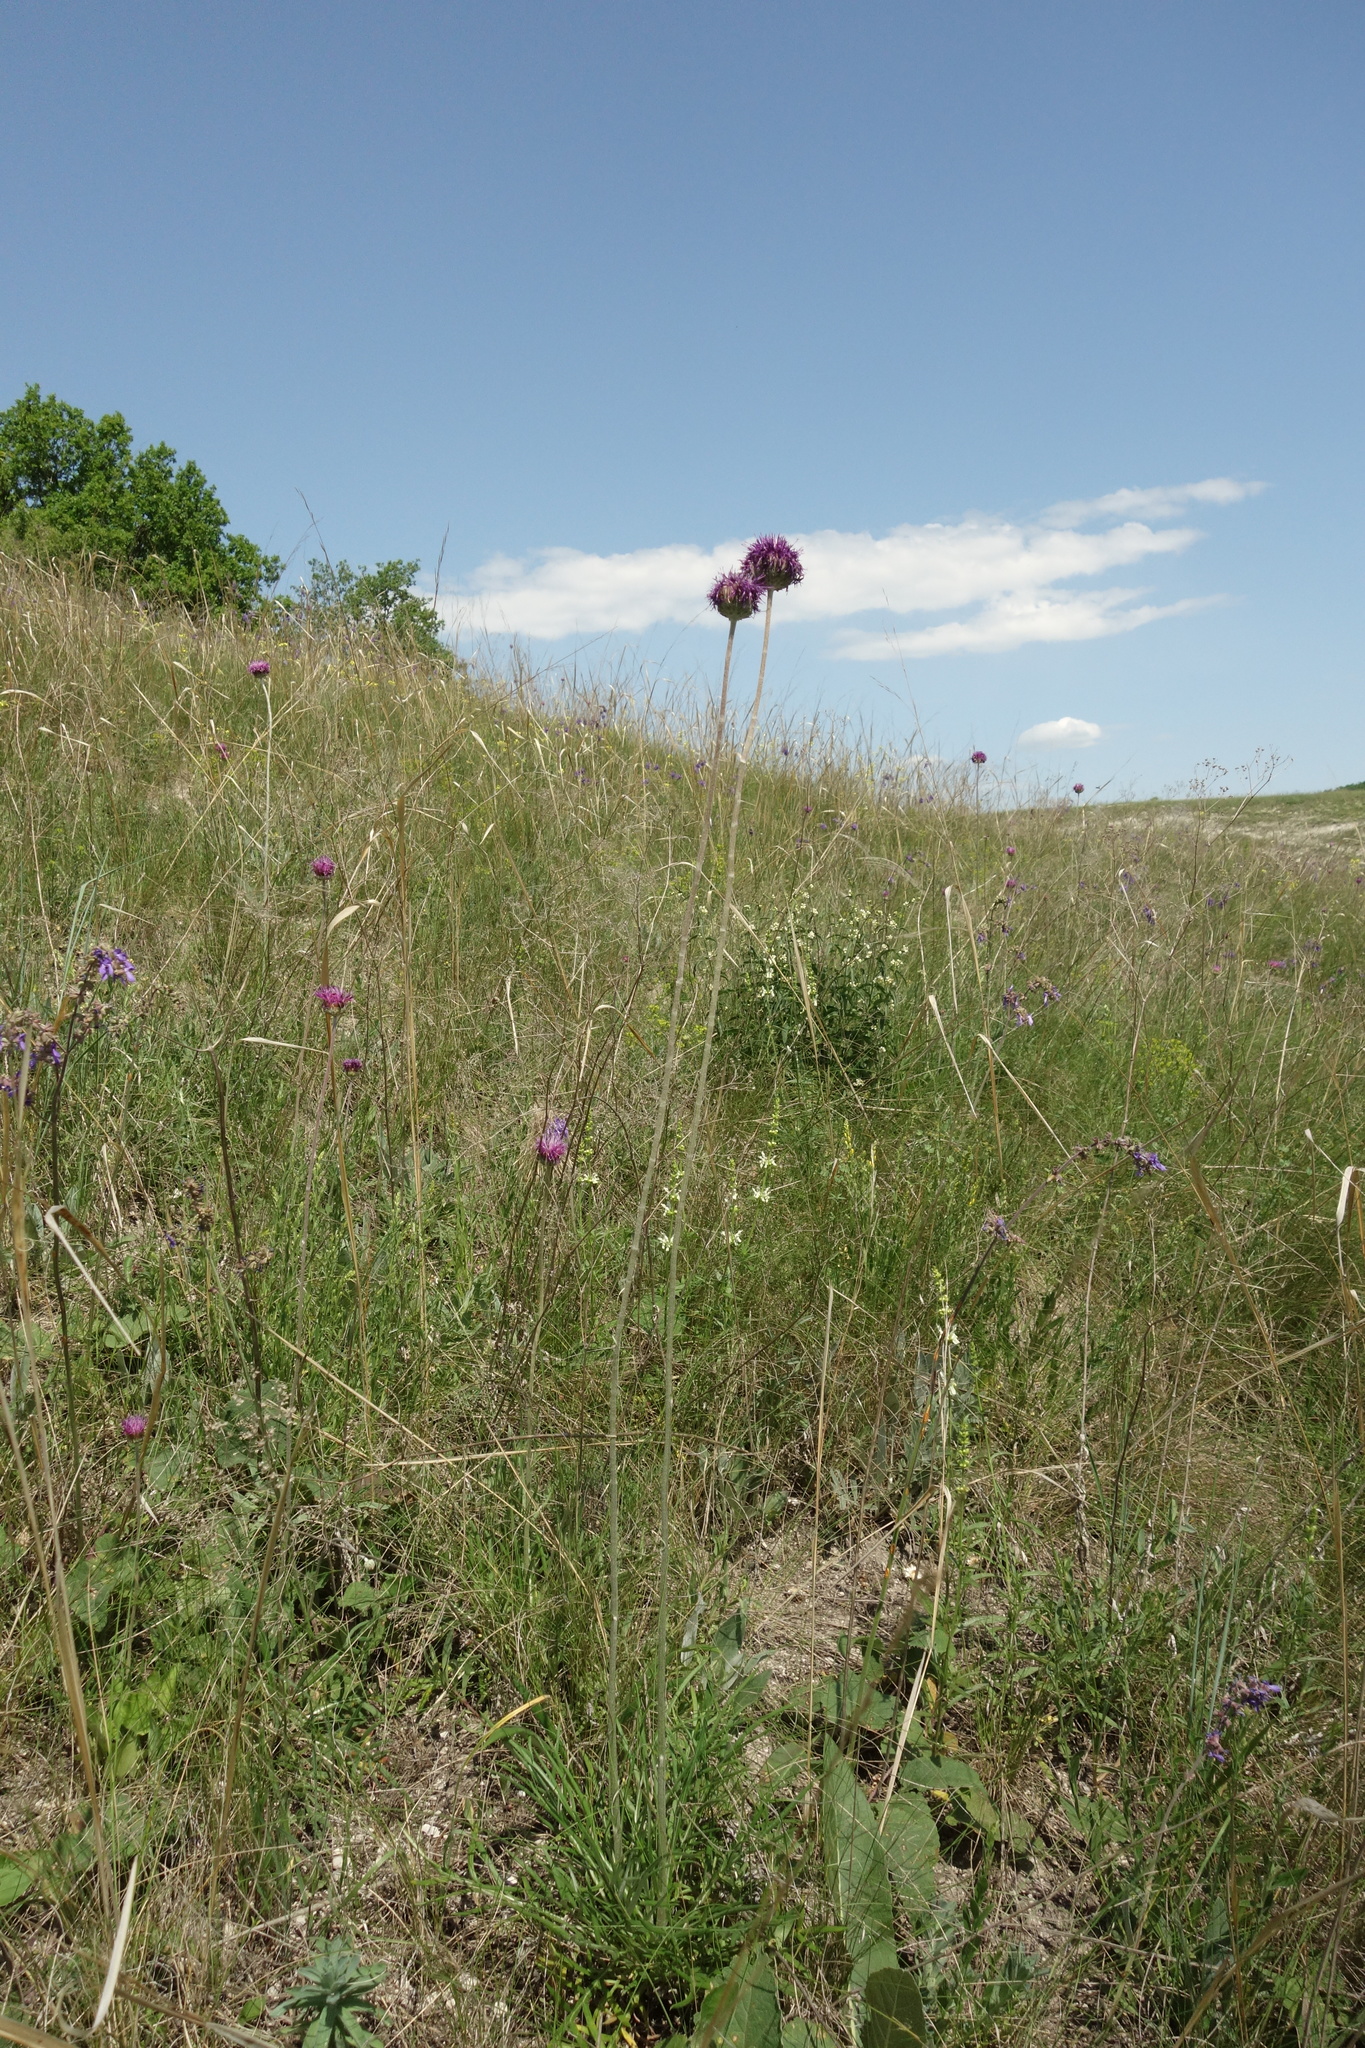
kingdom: Plantae
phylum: Tracheophyta
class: Magnoliopsida
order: Asterales
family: Asteraceae
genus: Jurinea
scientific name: Jurinea arachnoidea
